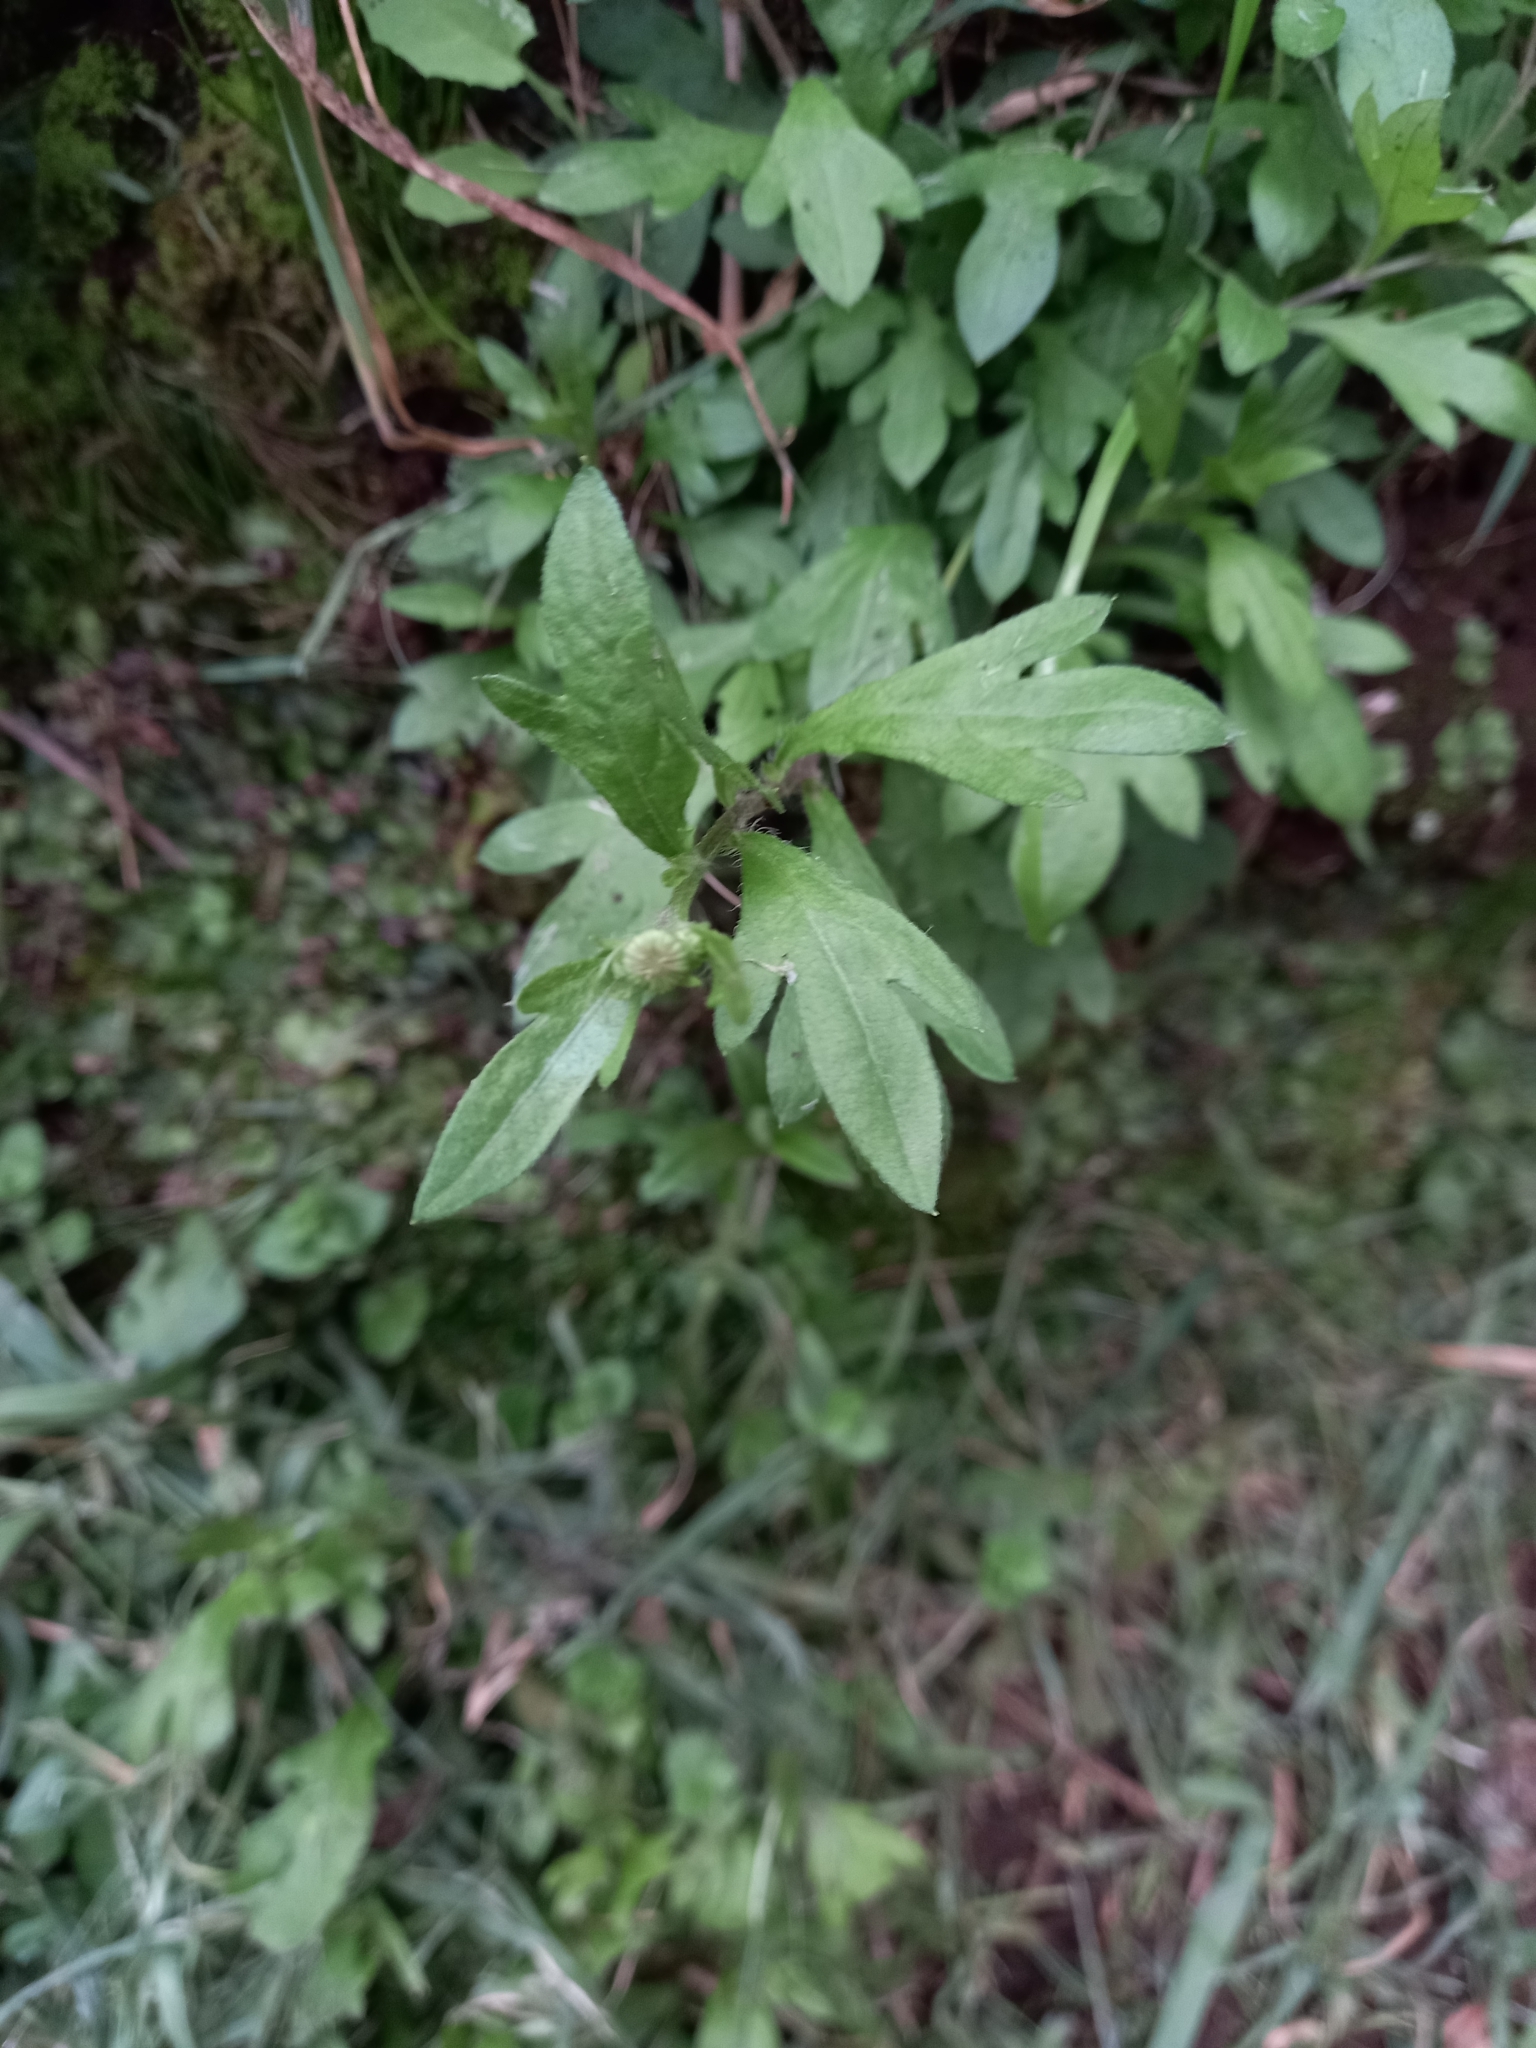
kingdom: Plantae
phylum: Tracheophyta
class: Magnoliopsida
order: Asterales
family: Asteraceae
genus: Erigeron
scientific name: Erigeron karvinskianus
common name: Mexican fleabane
